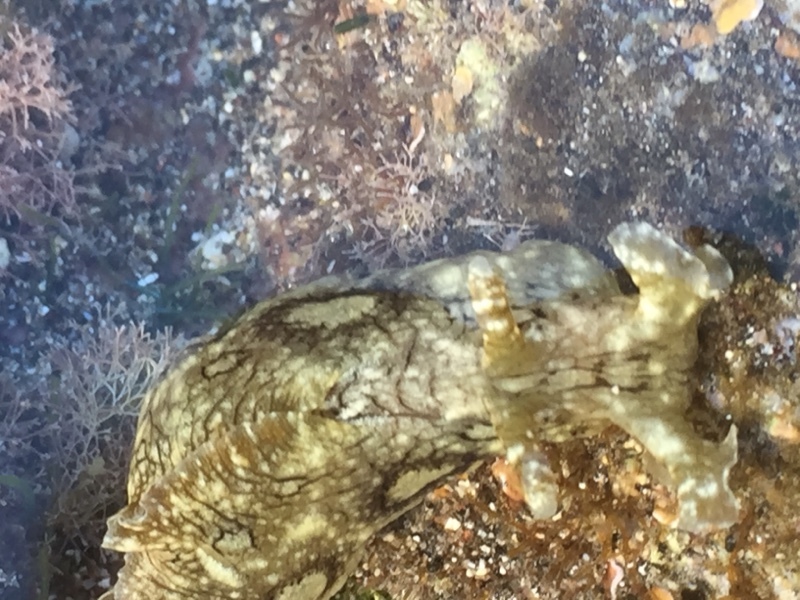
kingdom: Animalia
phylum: Mollusca
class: Gastropoda
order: Aplysiida
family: Aplysiidae
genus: Aplysia
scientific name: Aplysia dactylomela
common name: Large-spotted sea hare
